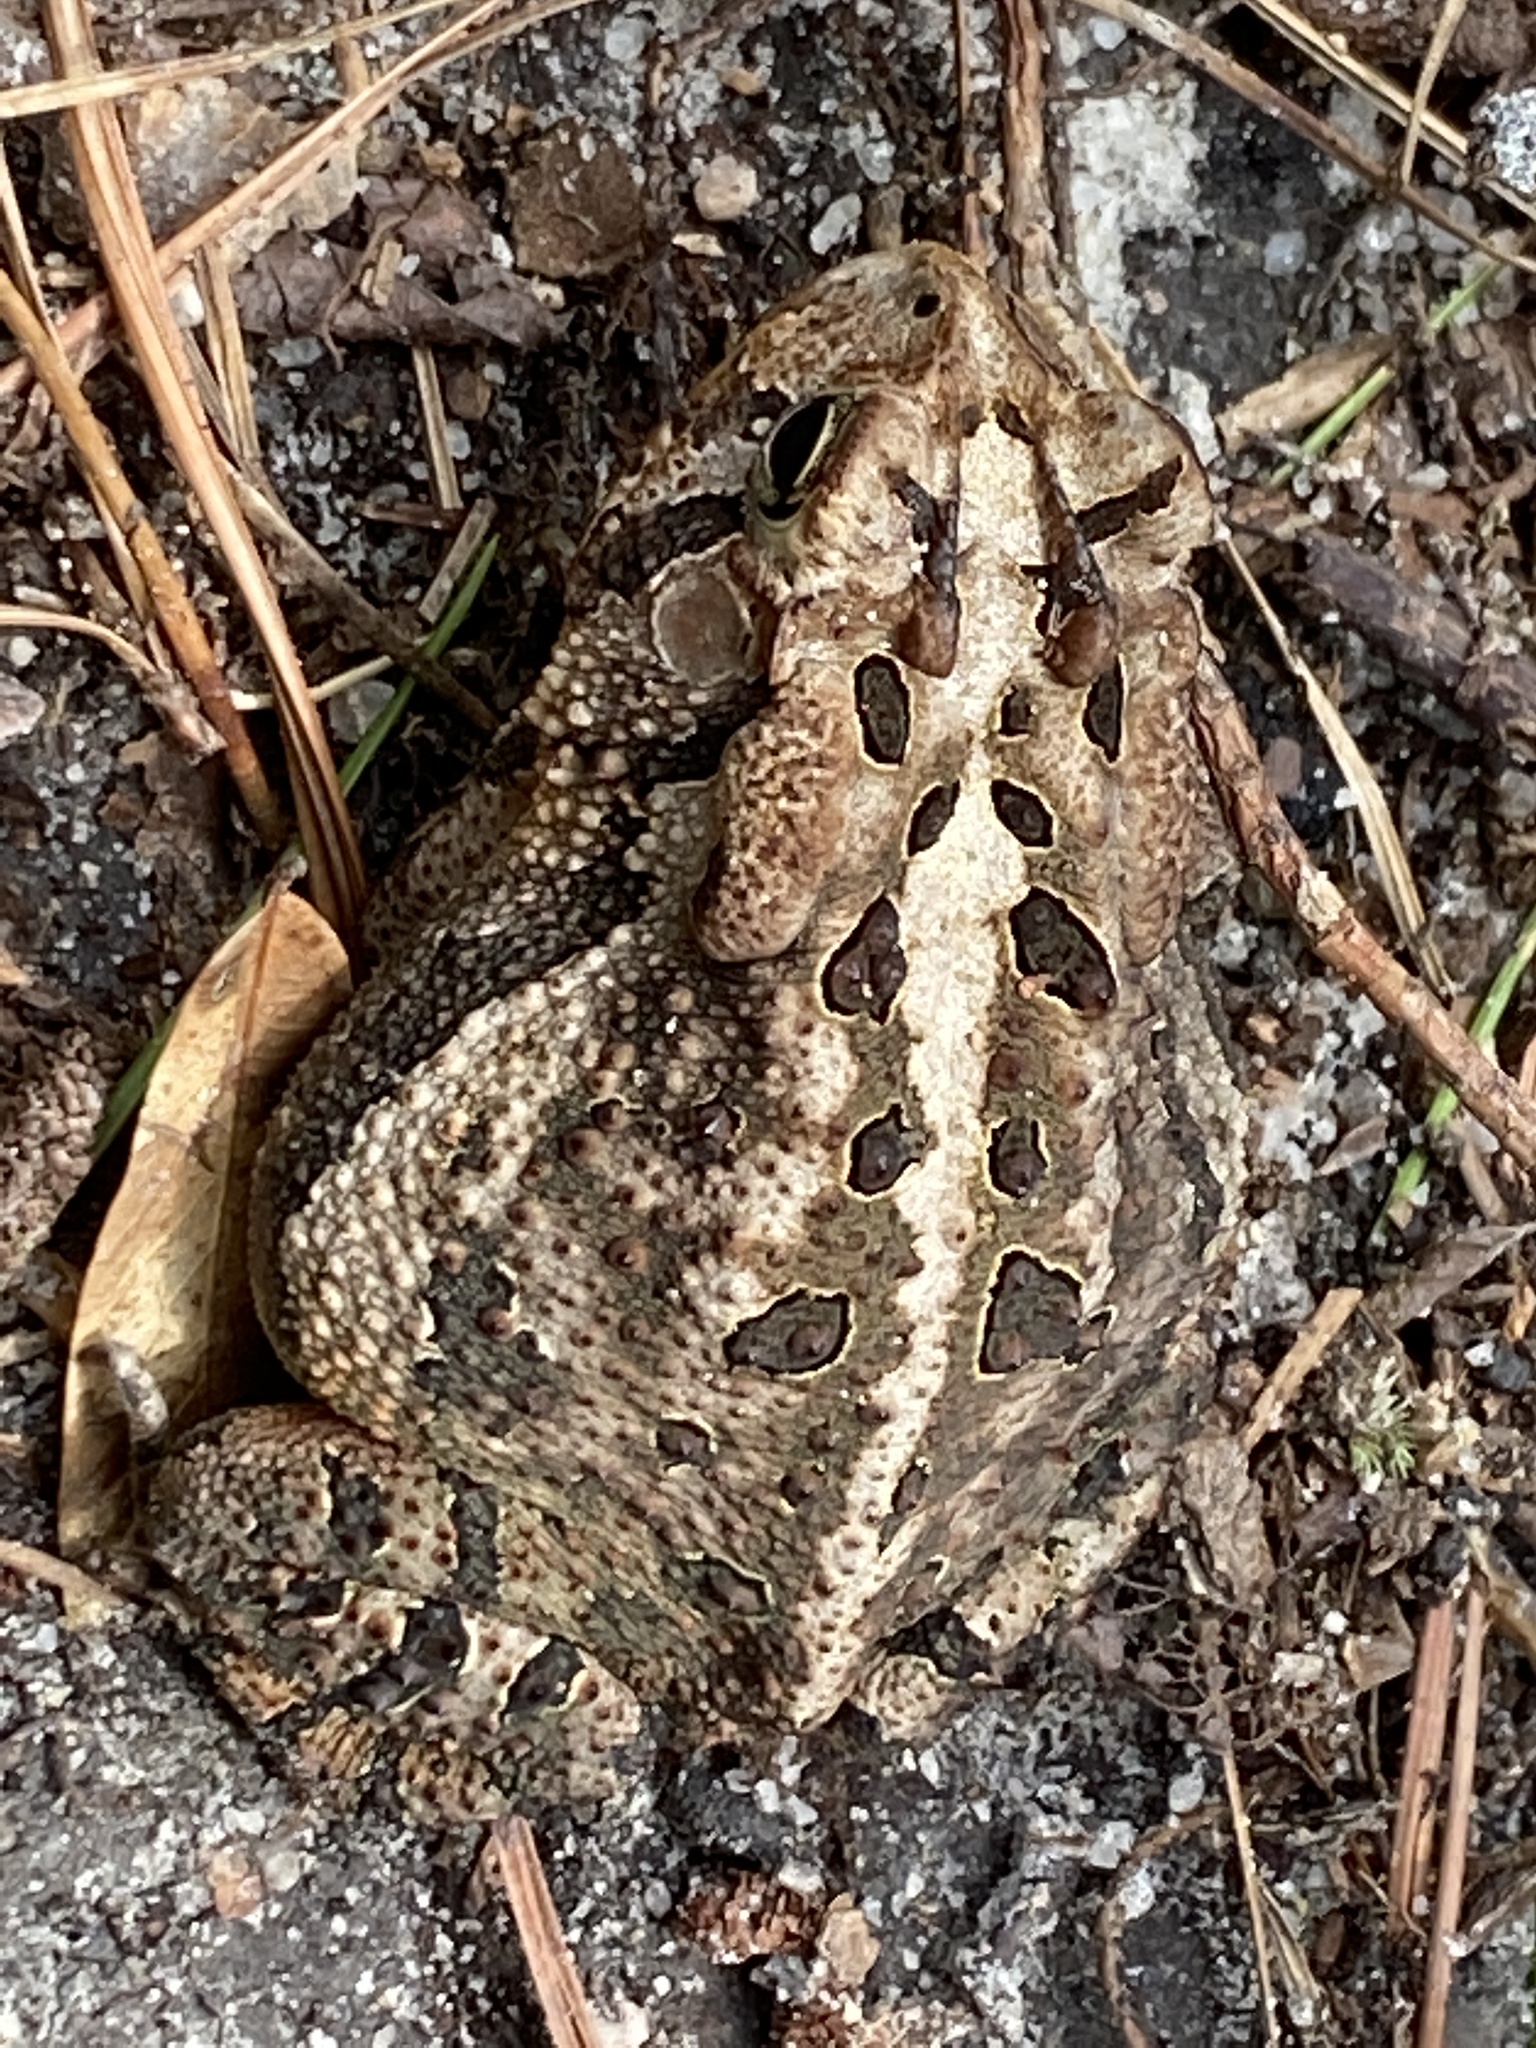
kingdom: Animalia
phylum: Chordata
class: Amphibia
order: Anura
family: Bufonidae
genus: Anaxyrus
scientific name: Anaxyrus terrestris
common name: Southern toad
